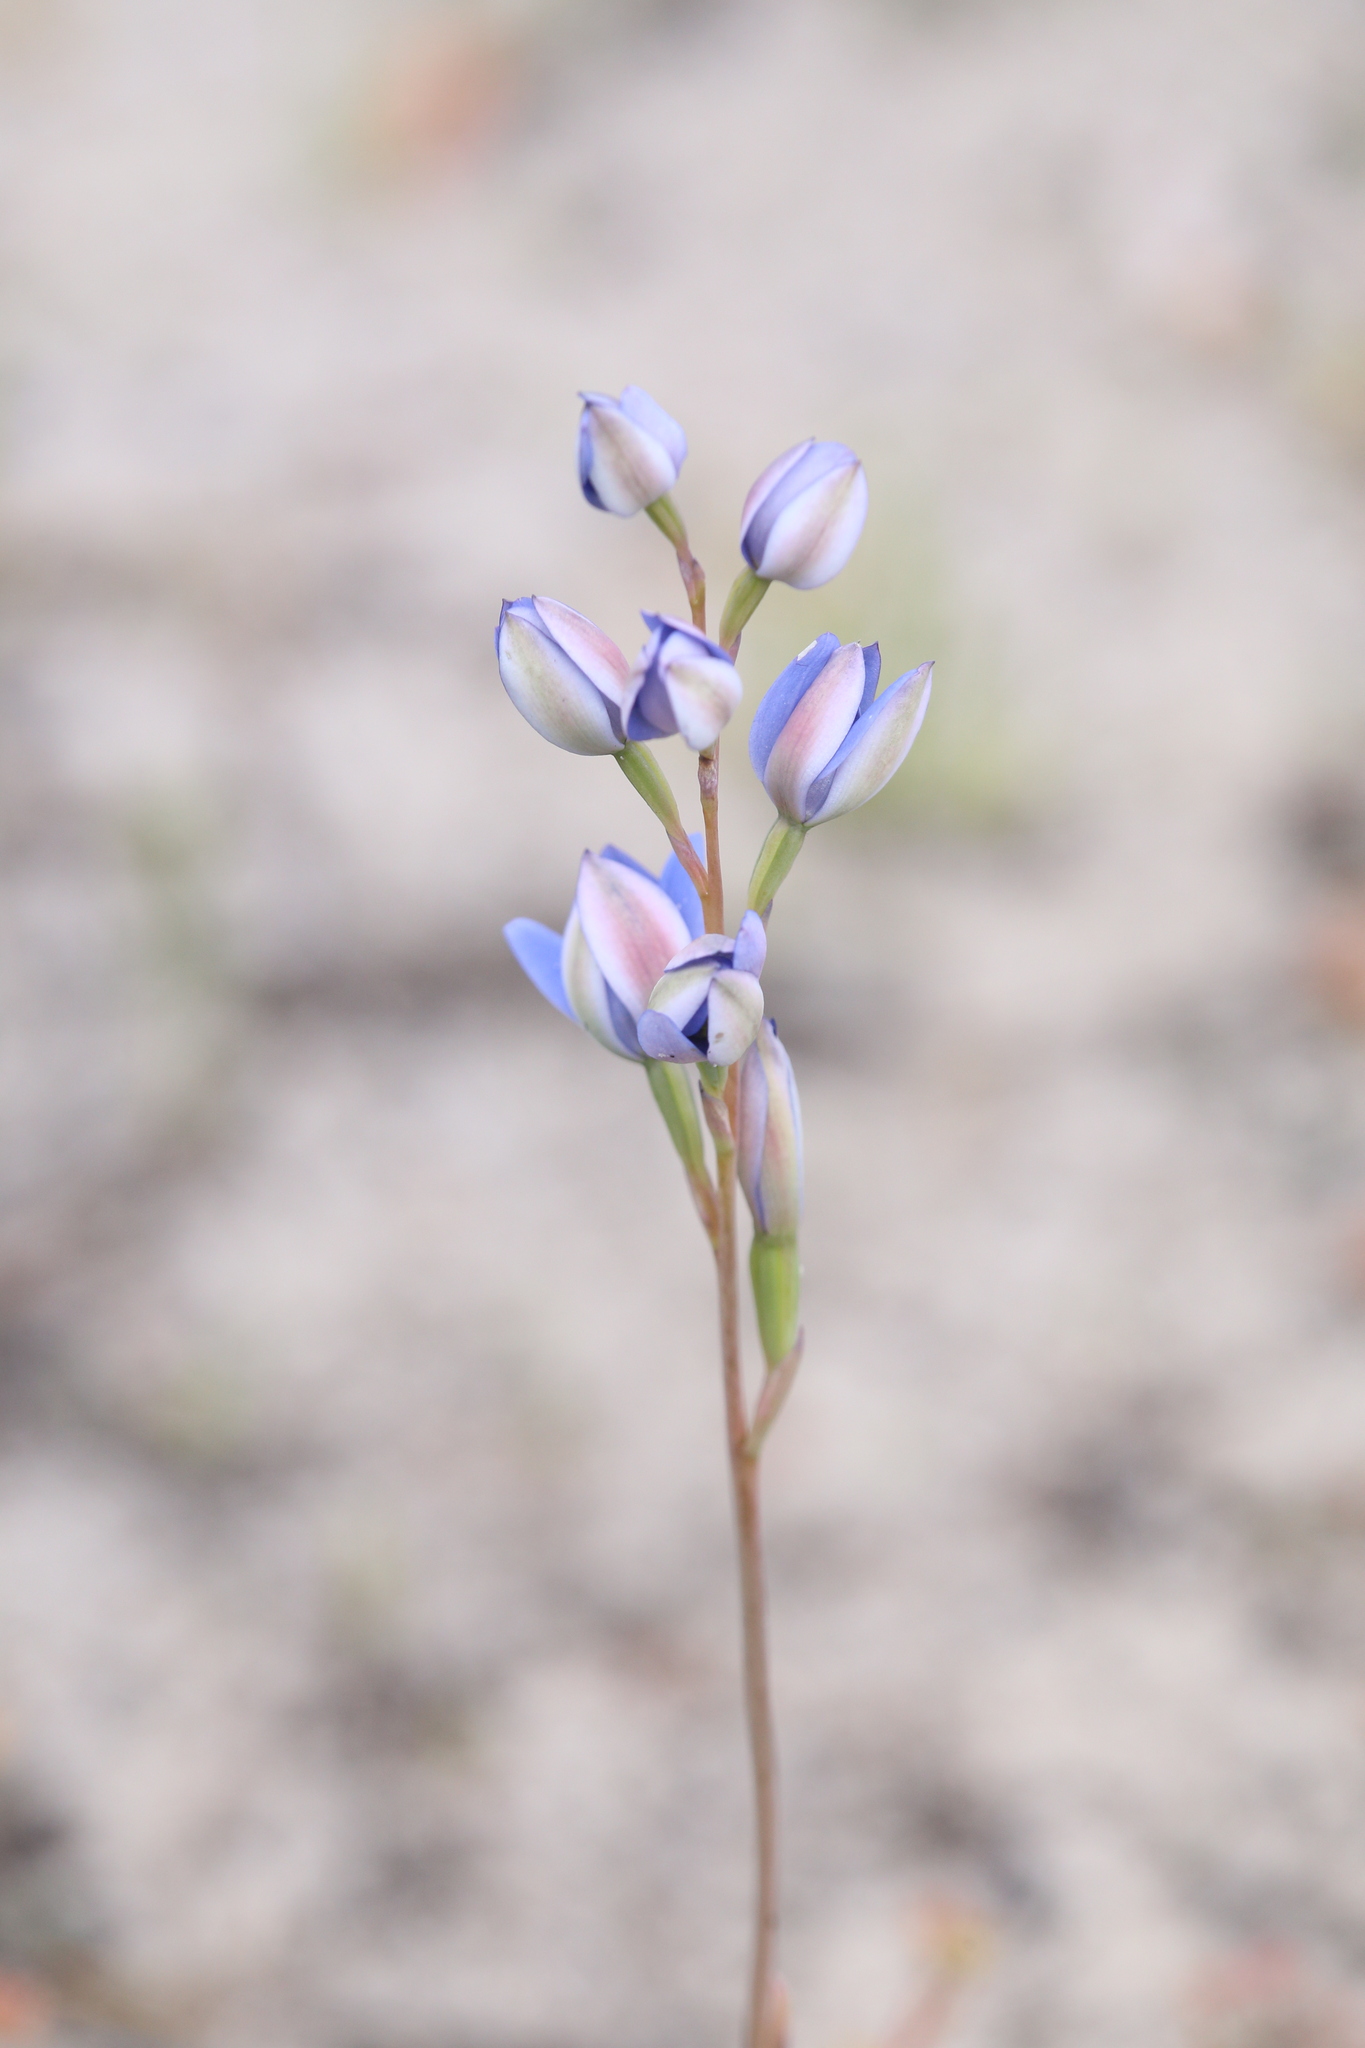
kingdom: Plantae
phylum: Tracheophyta
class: Liliopsida
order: Asparagales
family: Orchidaceae
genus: Thelymitra
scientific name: Thelymitra crinita
